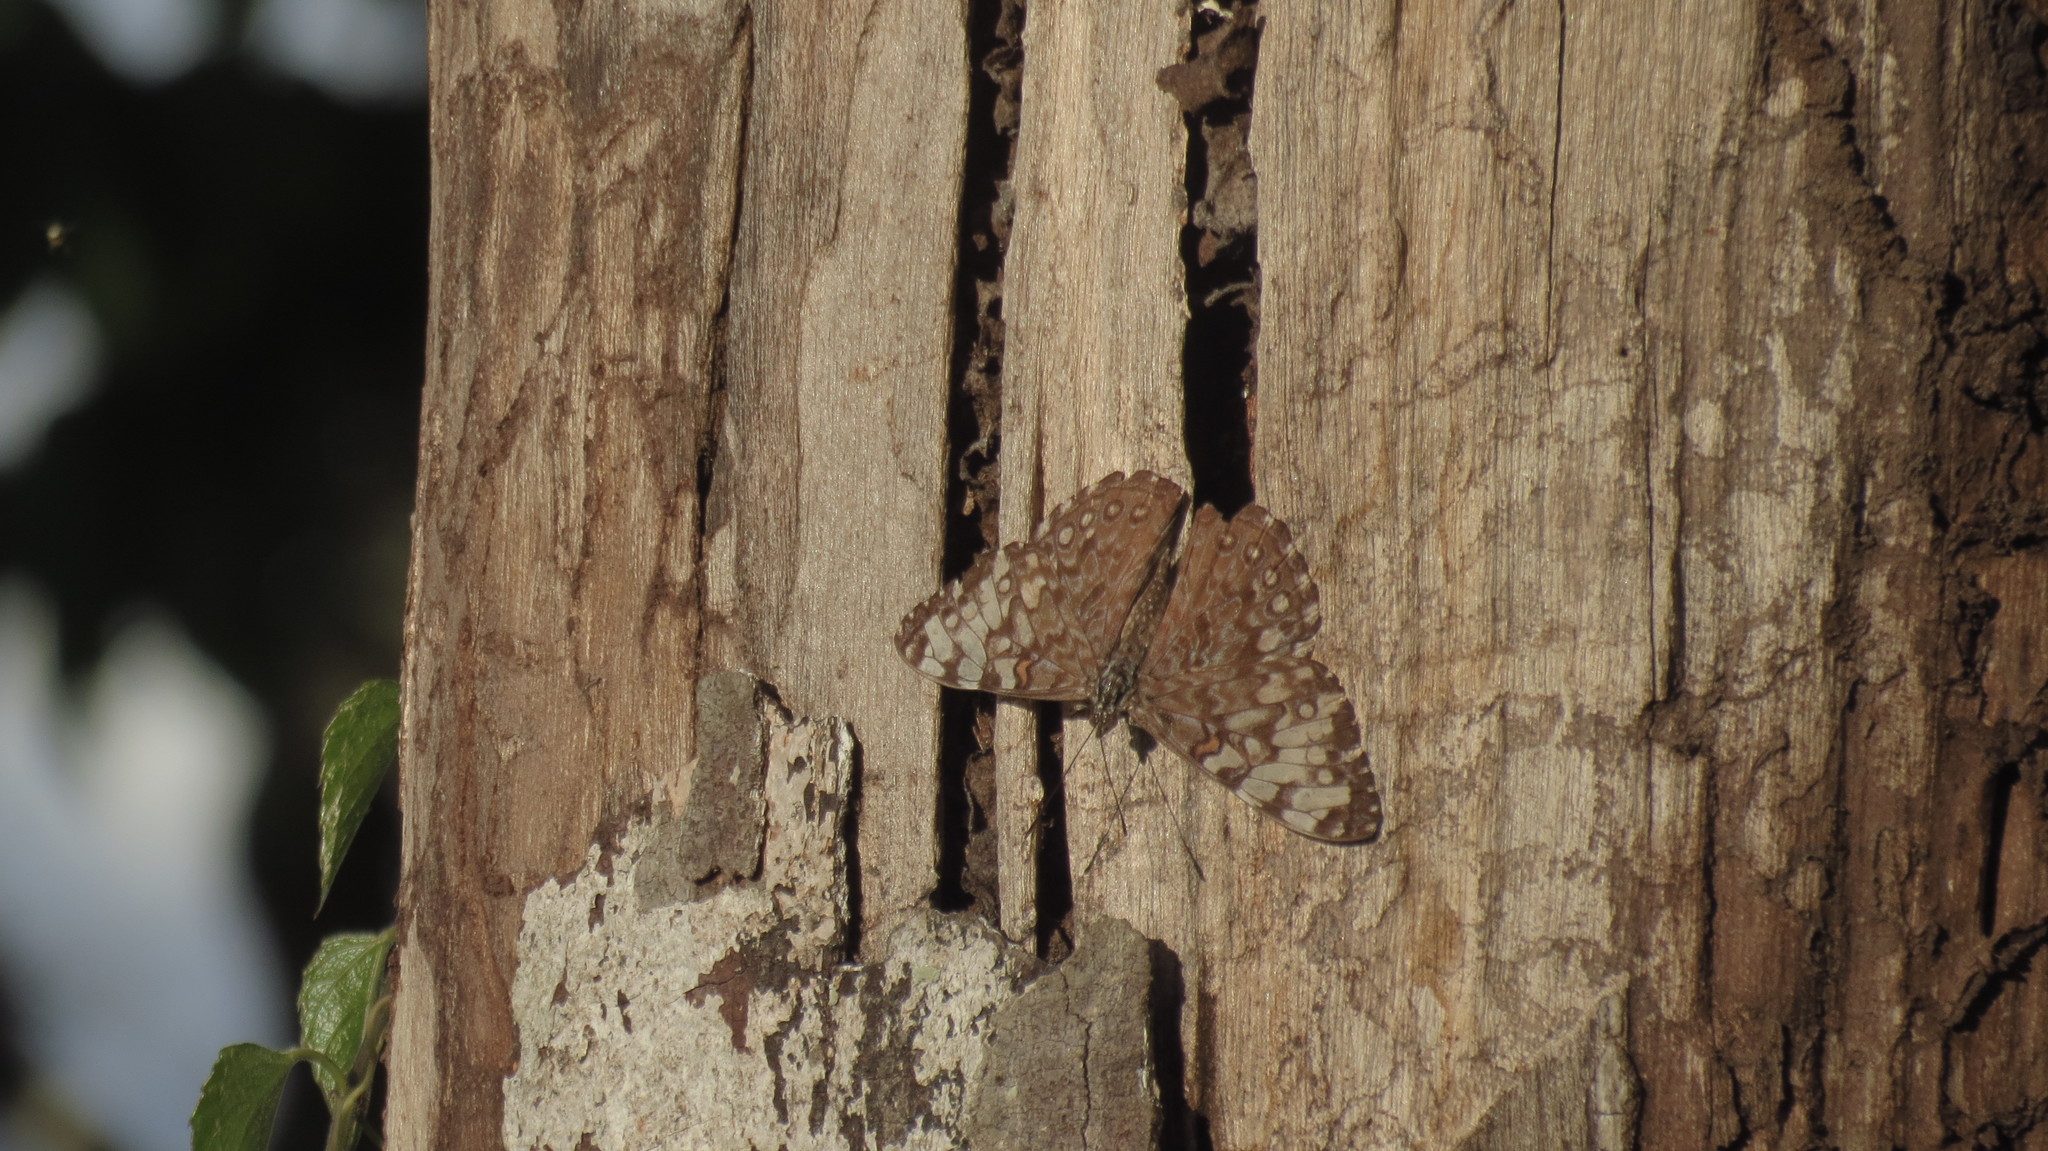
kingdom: Animalia
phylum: Arthropoda
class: Insecta
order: Lepidoptera
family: Nymphalidae
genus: Hamadryas
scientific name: Hamadryas guatemalena
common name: Guatemalan cracker
